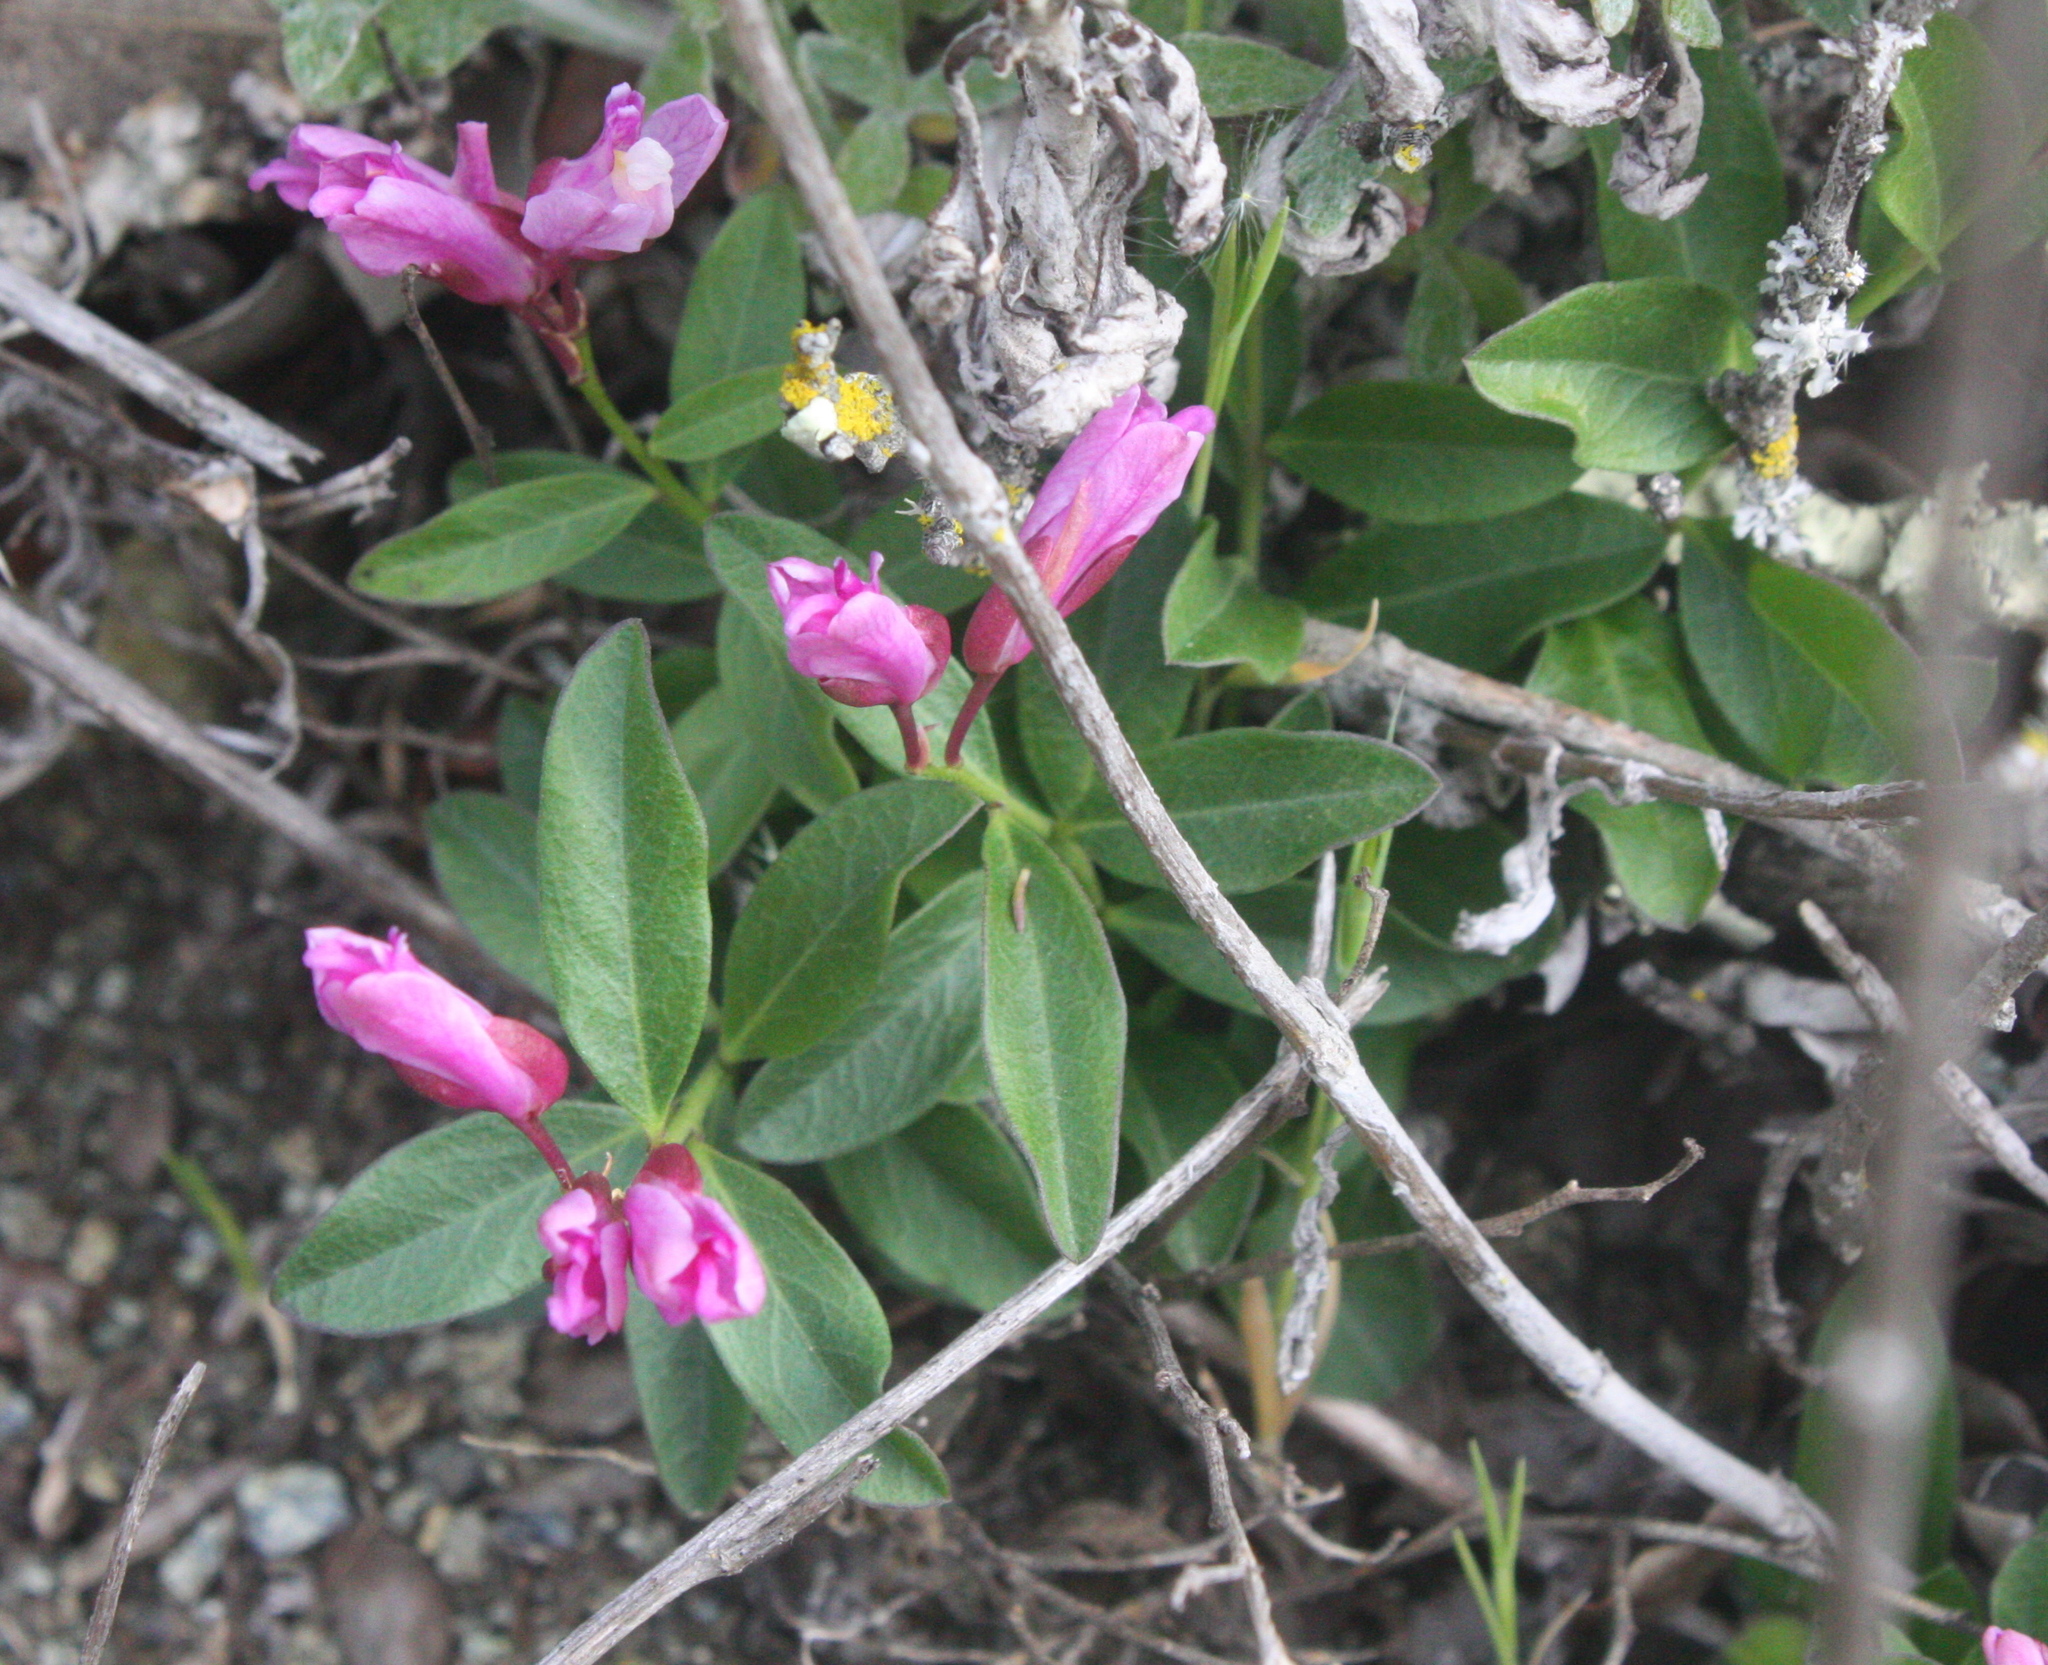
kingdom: Plantae
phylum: Tracheophyta
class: Magnoliopsida
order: Fabales
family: Polygalaceae
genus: Rhinotropis
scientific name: Rhinotropis californica
